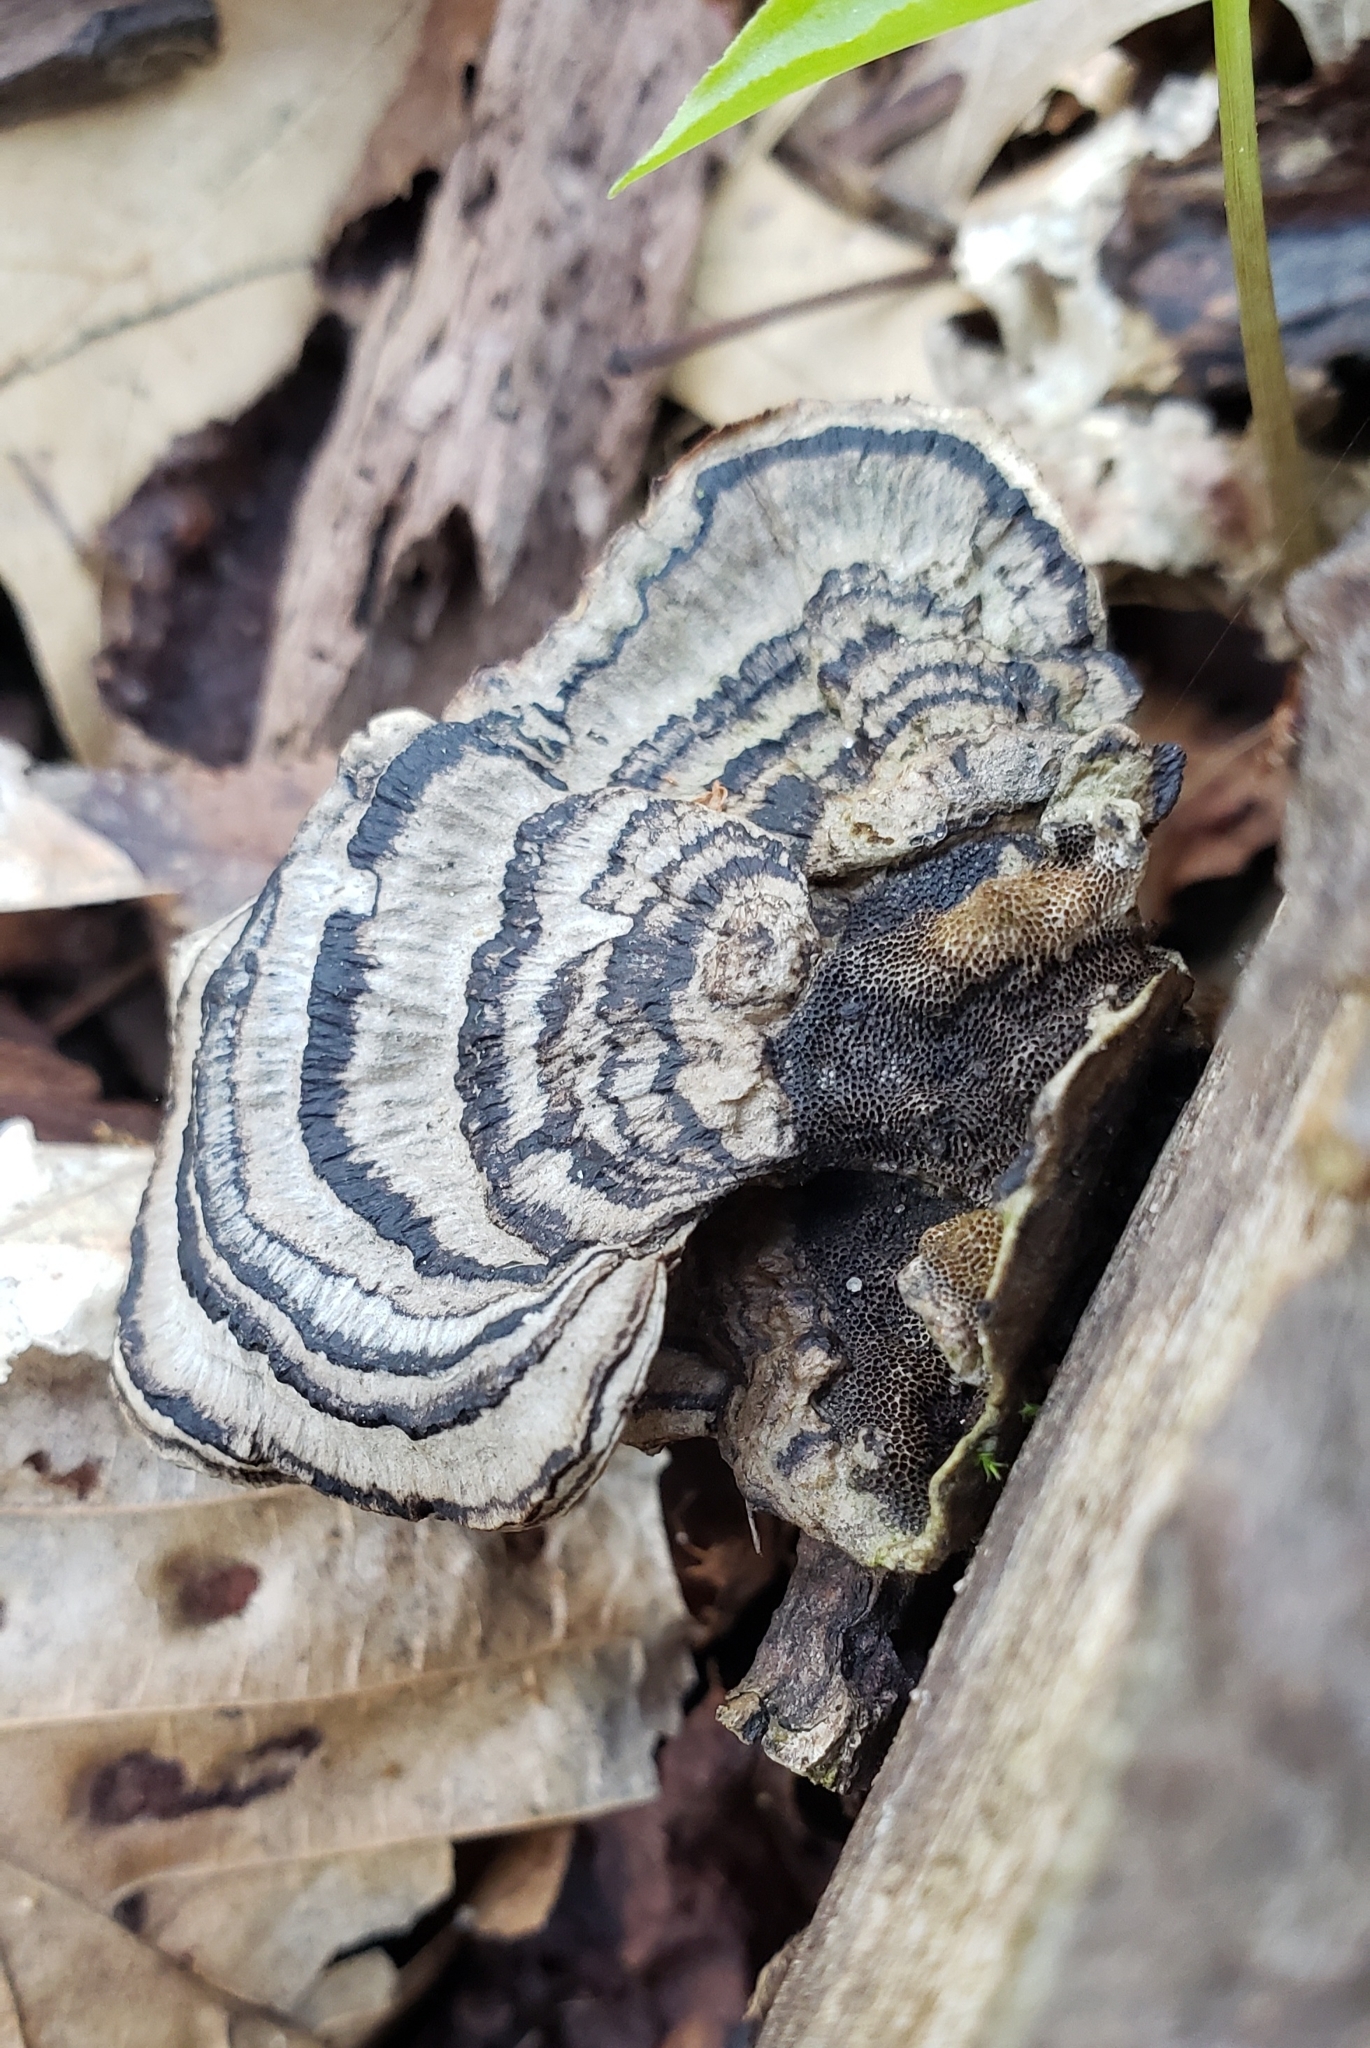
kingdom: Fungi
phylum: Basidiomycota
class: Agaricomycetes
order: Polyporales
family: Polyporaceae
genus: Podofomes
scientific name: Podofomes stereoides
